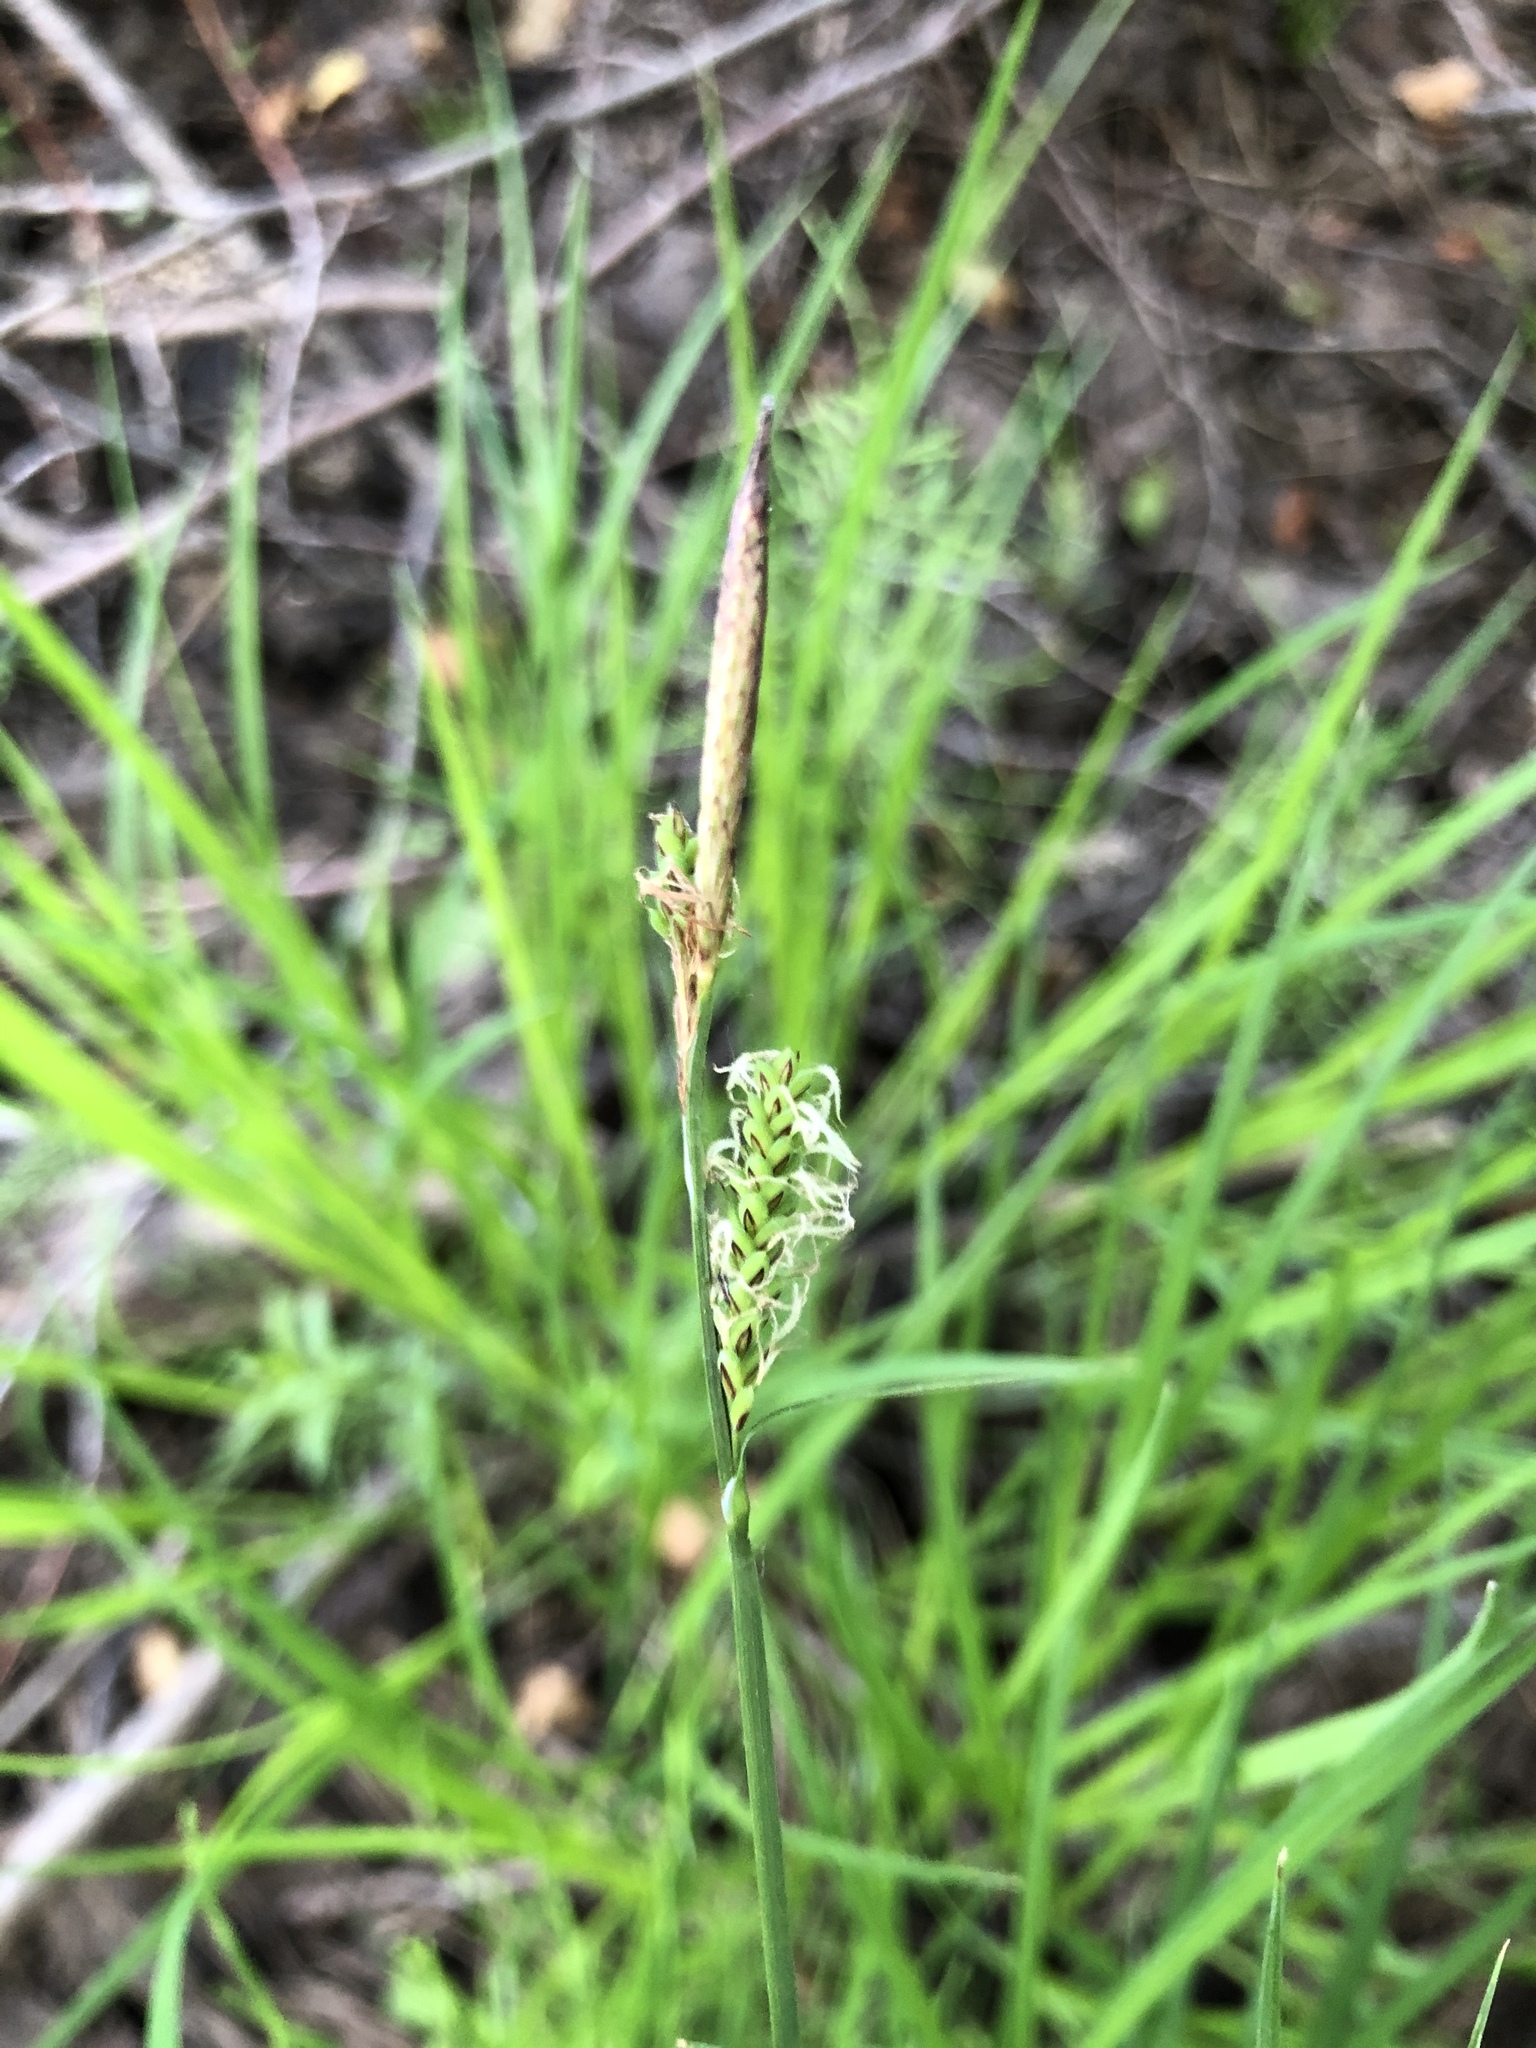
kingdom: Plantae
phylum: Tracheophyta
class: Liliopsida
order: Poales
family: Cyperaceae
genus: Carex
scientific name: Carex cespitosa
